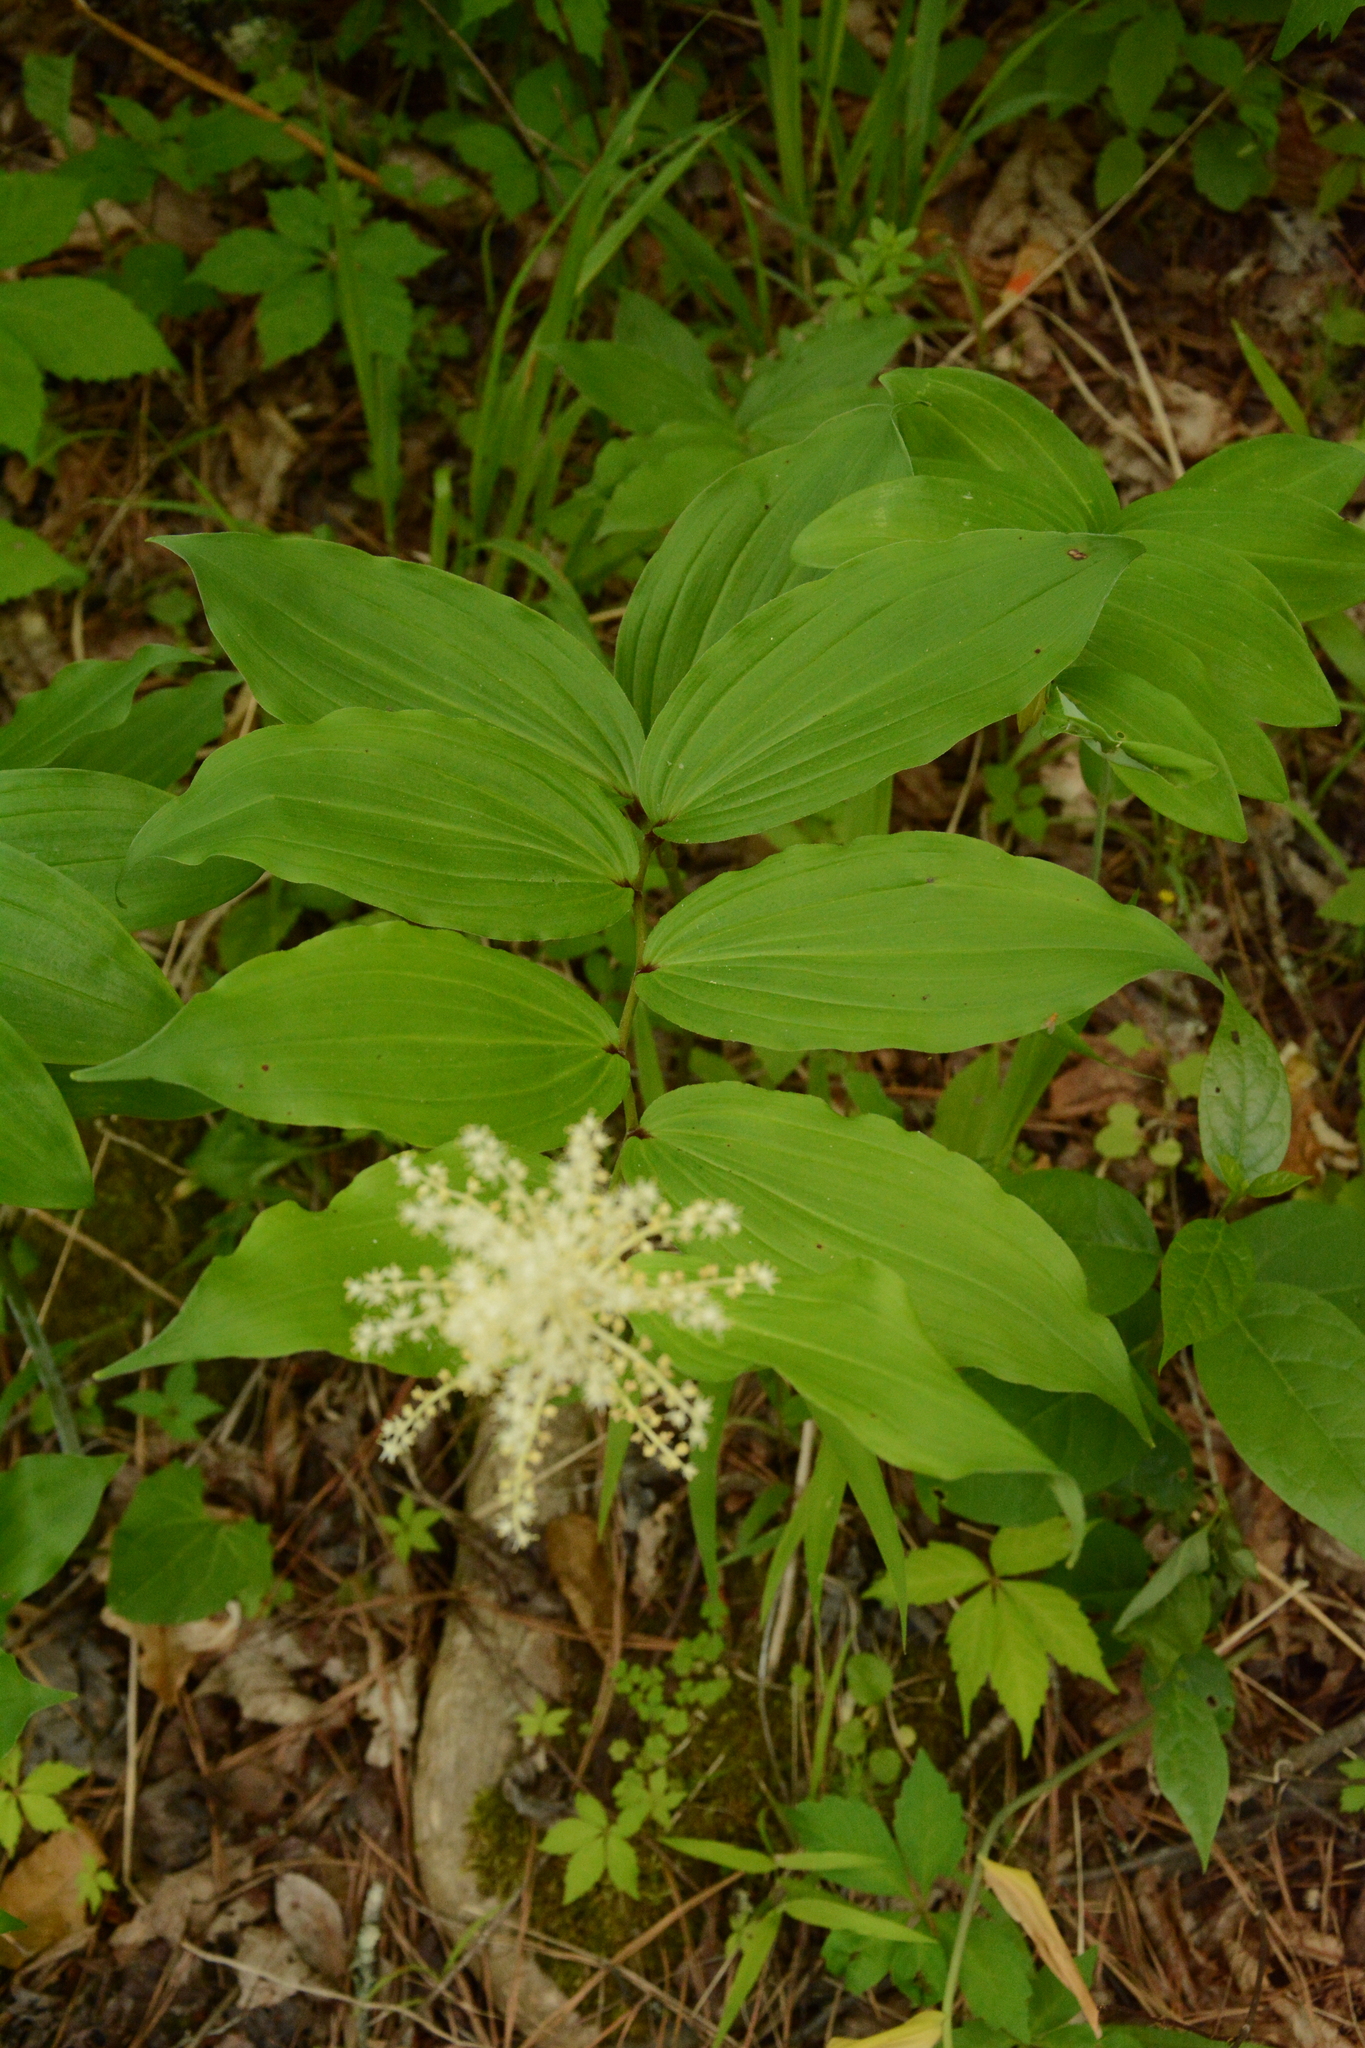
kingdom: Plantae
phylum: Tracheophyta
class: Liliopsida
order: Asparagales
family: Asparagaceae
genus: Maianthemum
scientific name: Maianthemum racemosum
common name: False spikenard
